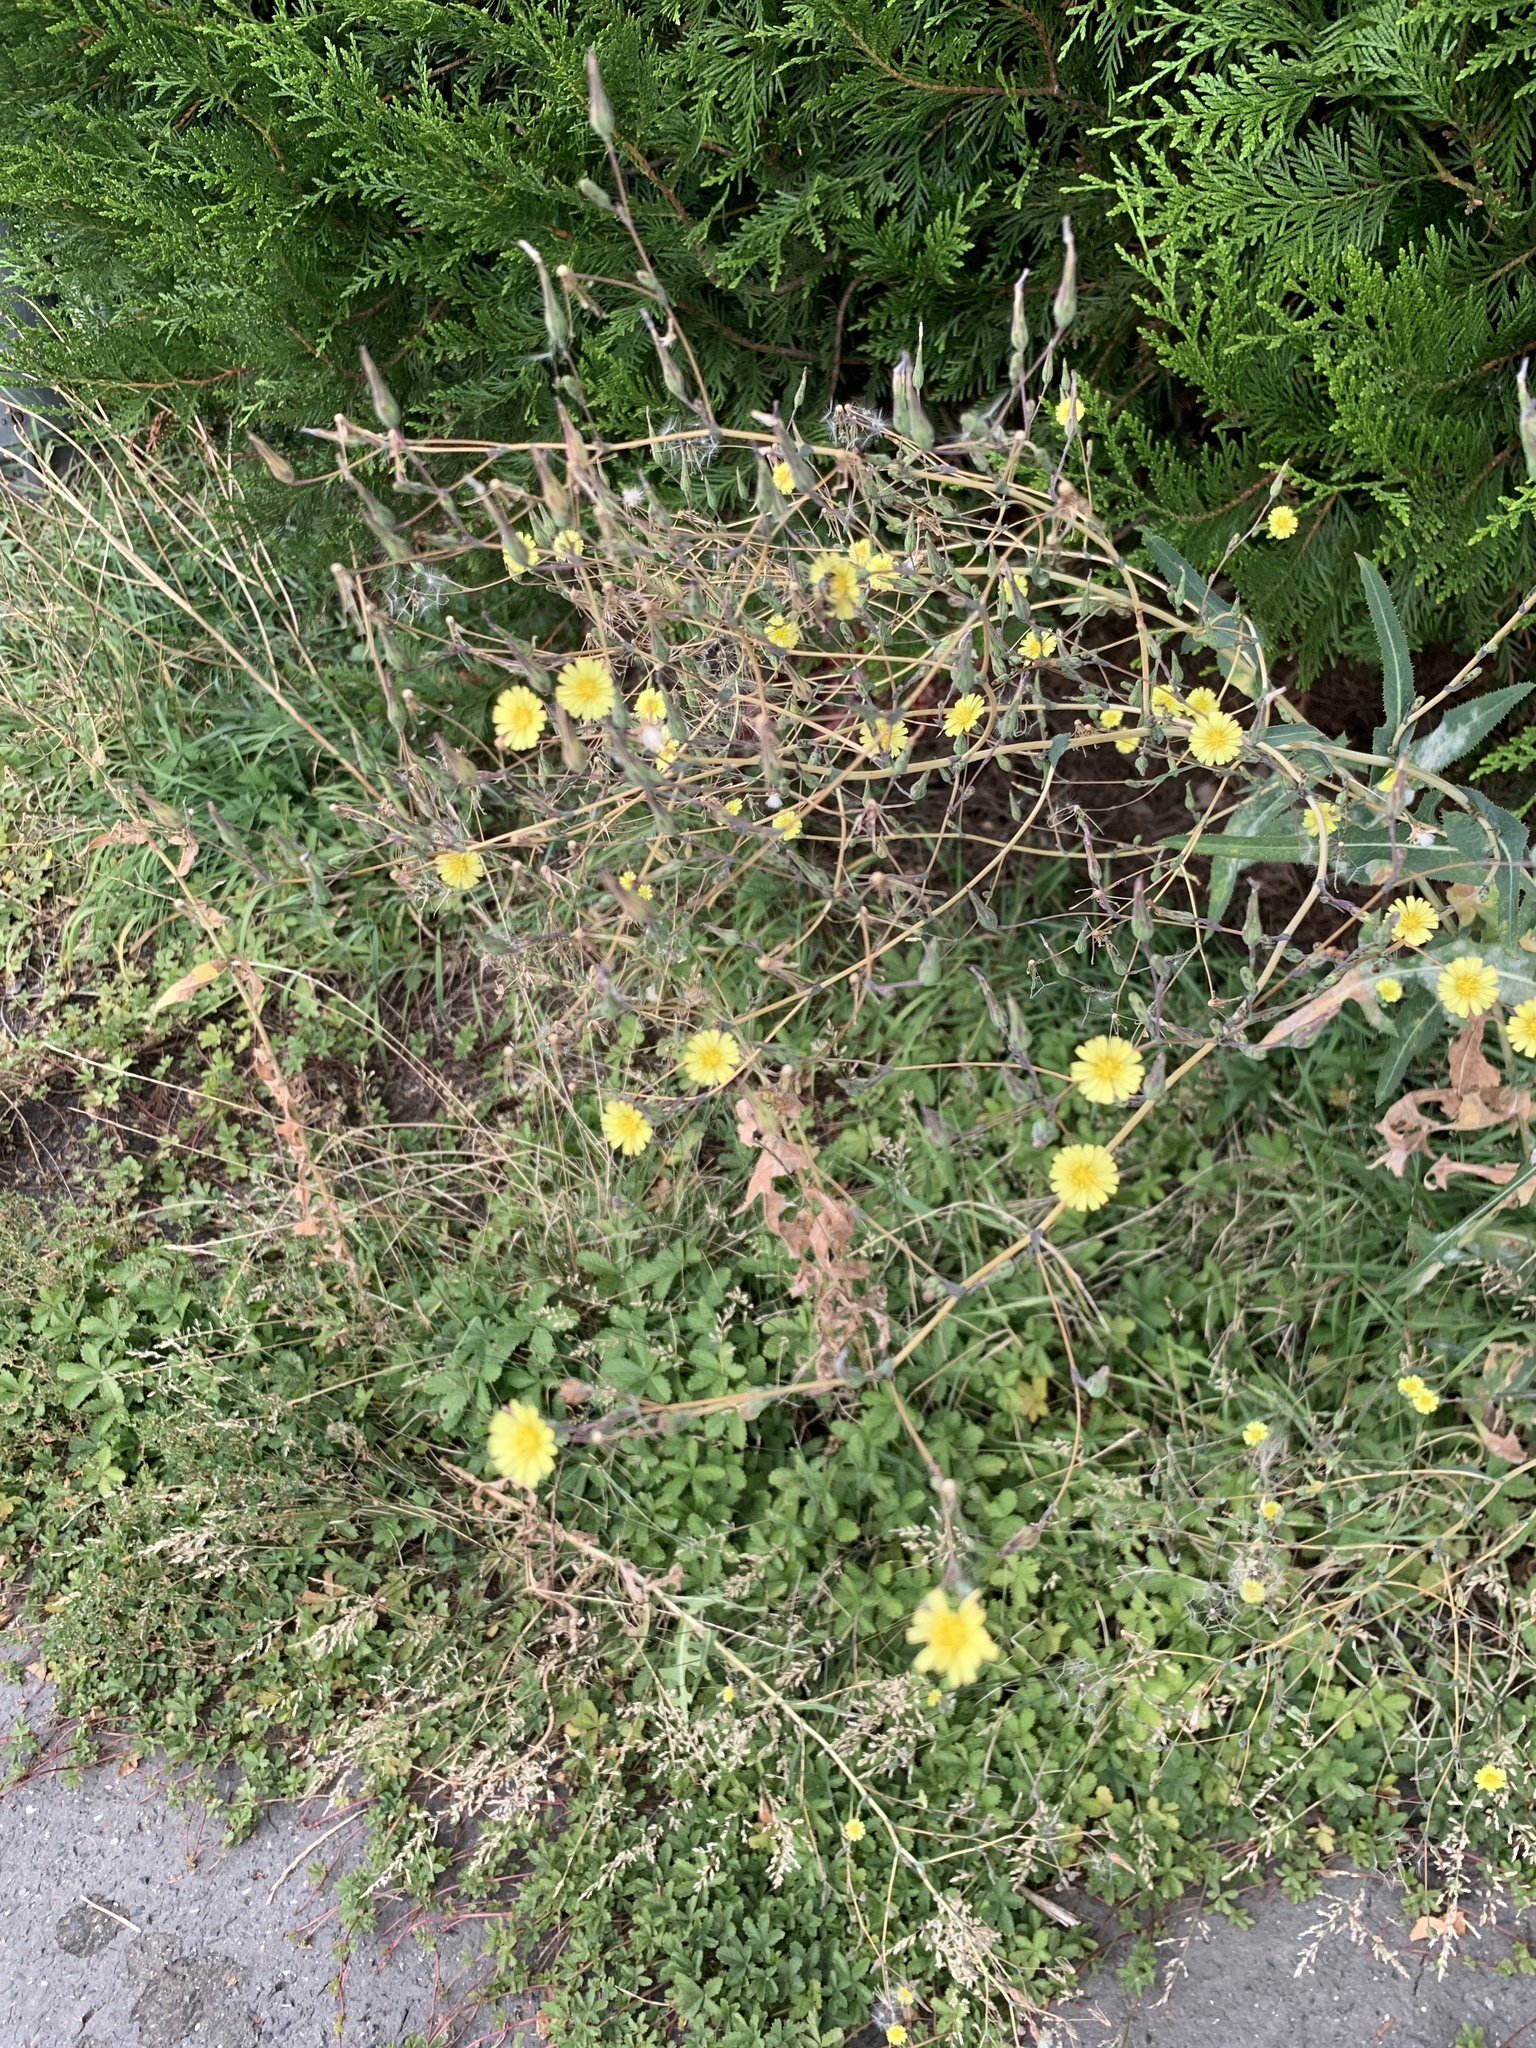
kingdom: Plantae
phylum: Tracheophyta
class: Magnoliopsida
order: Asterales
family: Asteraceae
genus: Lactuca
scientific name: Lactuca serriola
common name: Prickly lettuce
